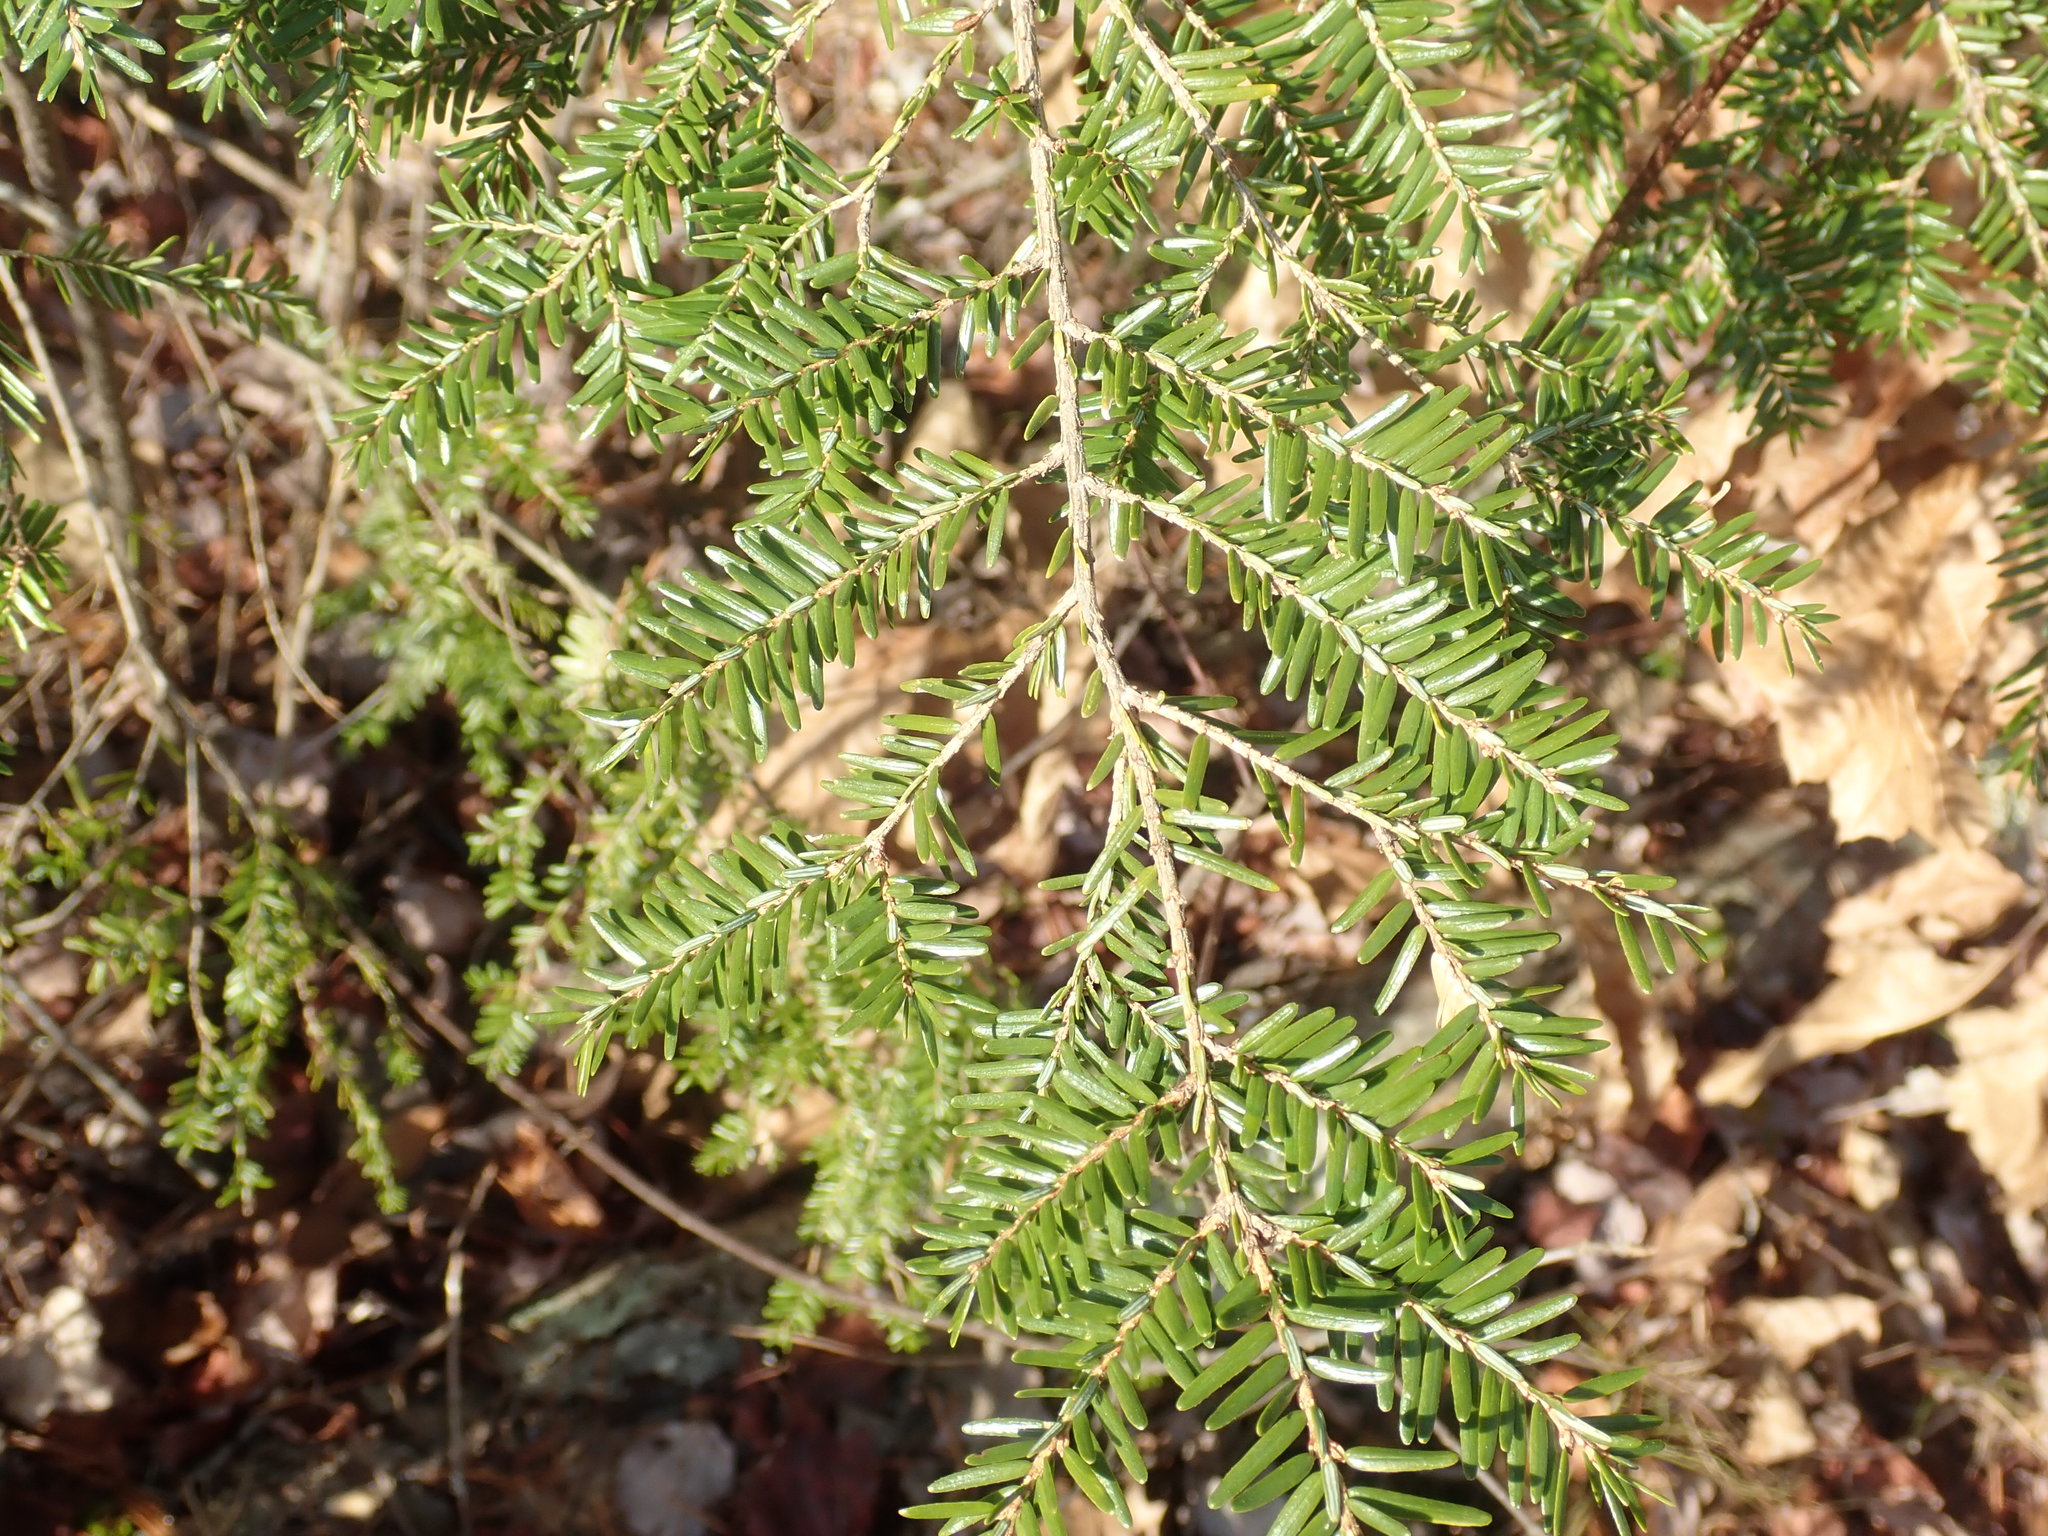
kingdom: Plantae
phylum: Tracheophyta
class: Pinopsida
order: Pinales
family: Pinaceae
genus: Tsuga
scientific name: Tsuga canadensis
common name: Eastern hemlock
